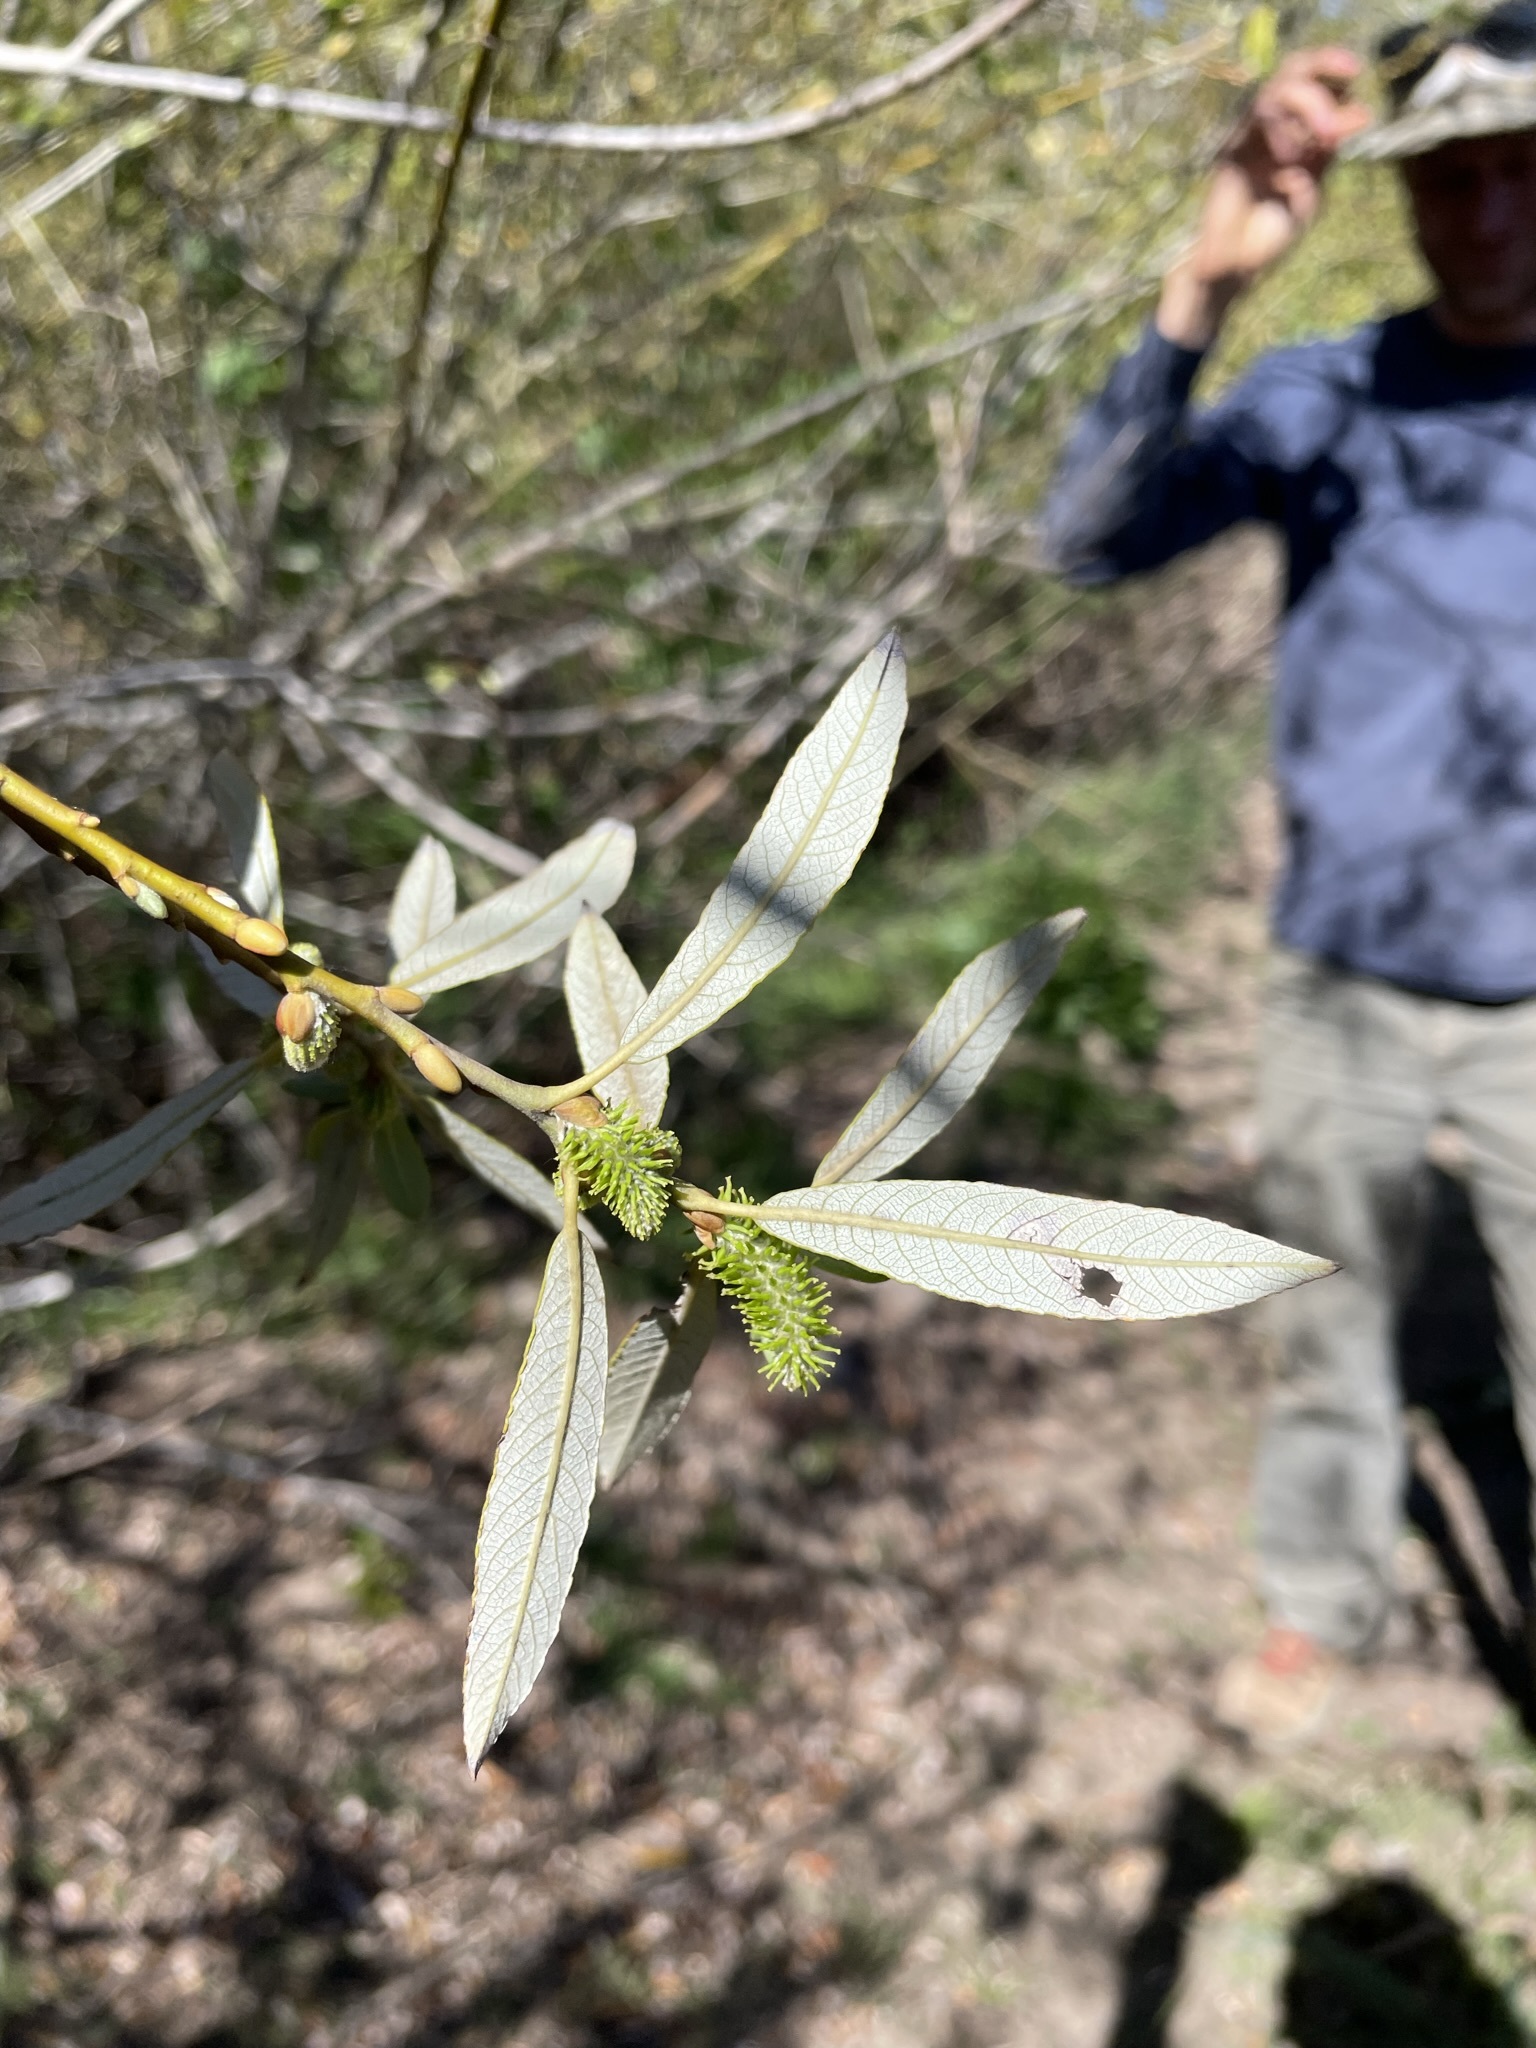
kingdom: Plantae
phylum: Tracheophyta
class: Magnoliopsida
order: Malpighiales
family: Salicaceae
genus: Salix
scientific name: Salix lasiolepis
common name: Arroyo willow
